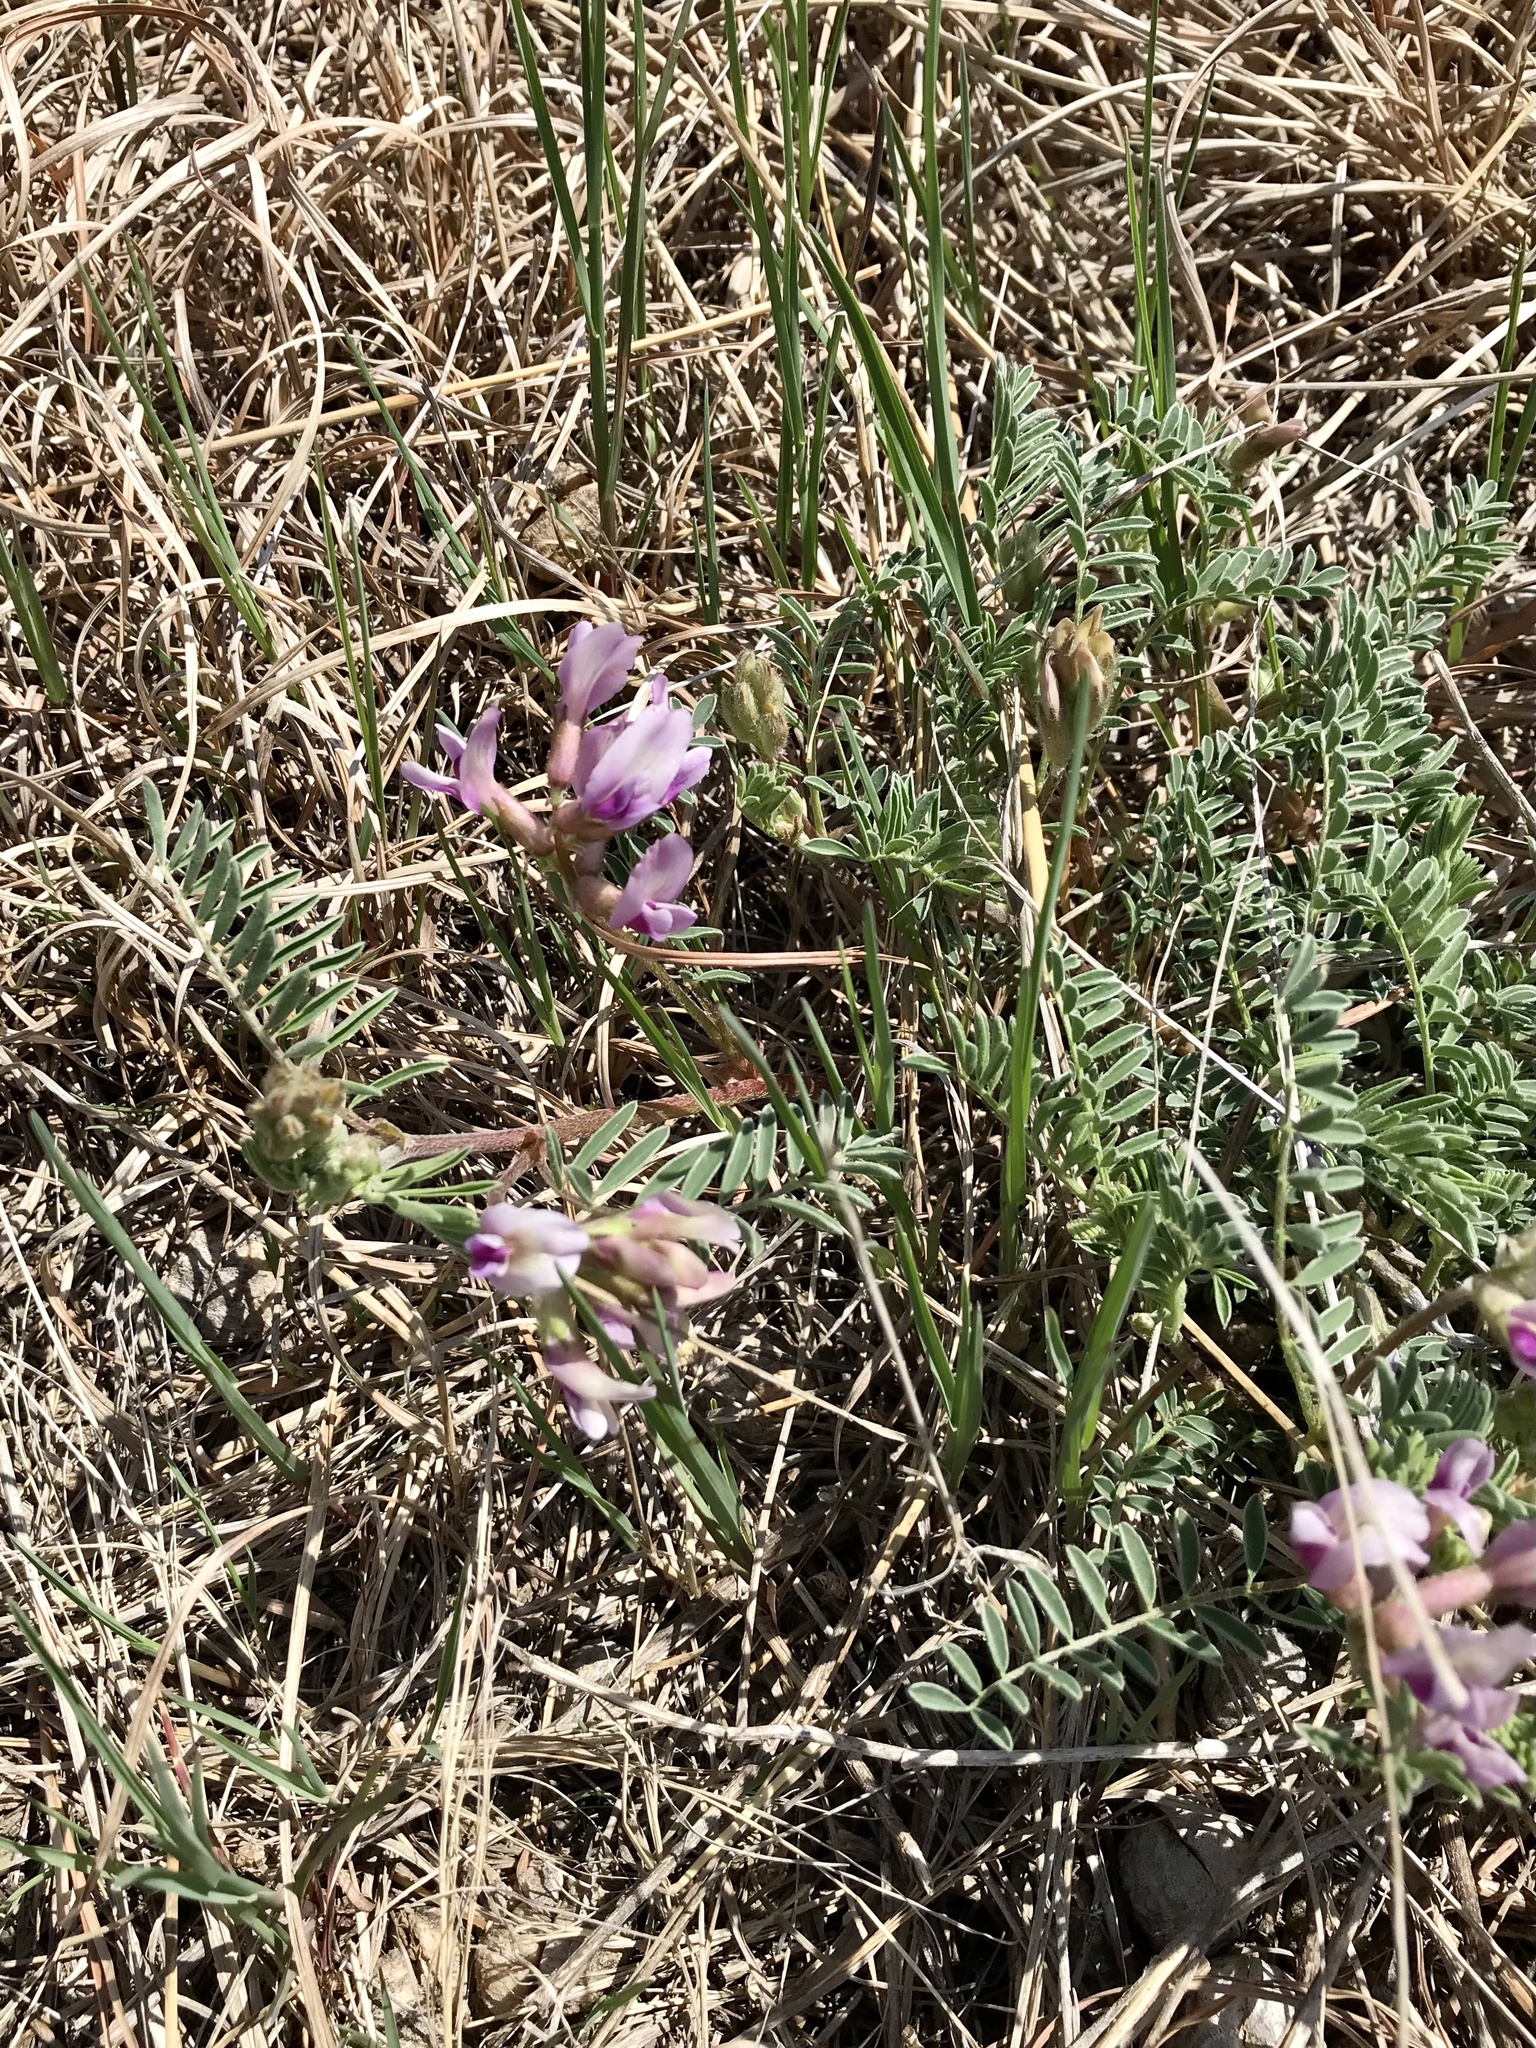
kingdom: Plantae
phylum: Tracheophyta
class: Magnoliopsida
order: Fabales
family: Fabaceae
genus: Astragalus
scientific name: Astragalus crassicarpus
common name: Ground-plum milk-vetch
